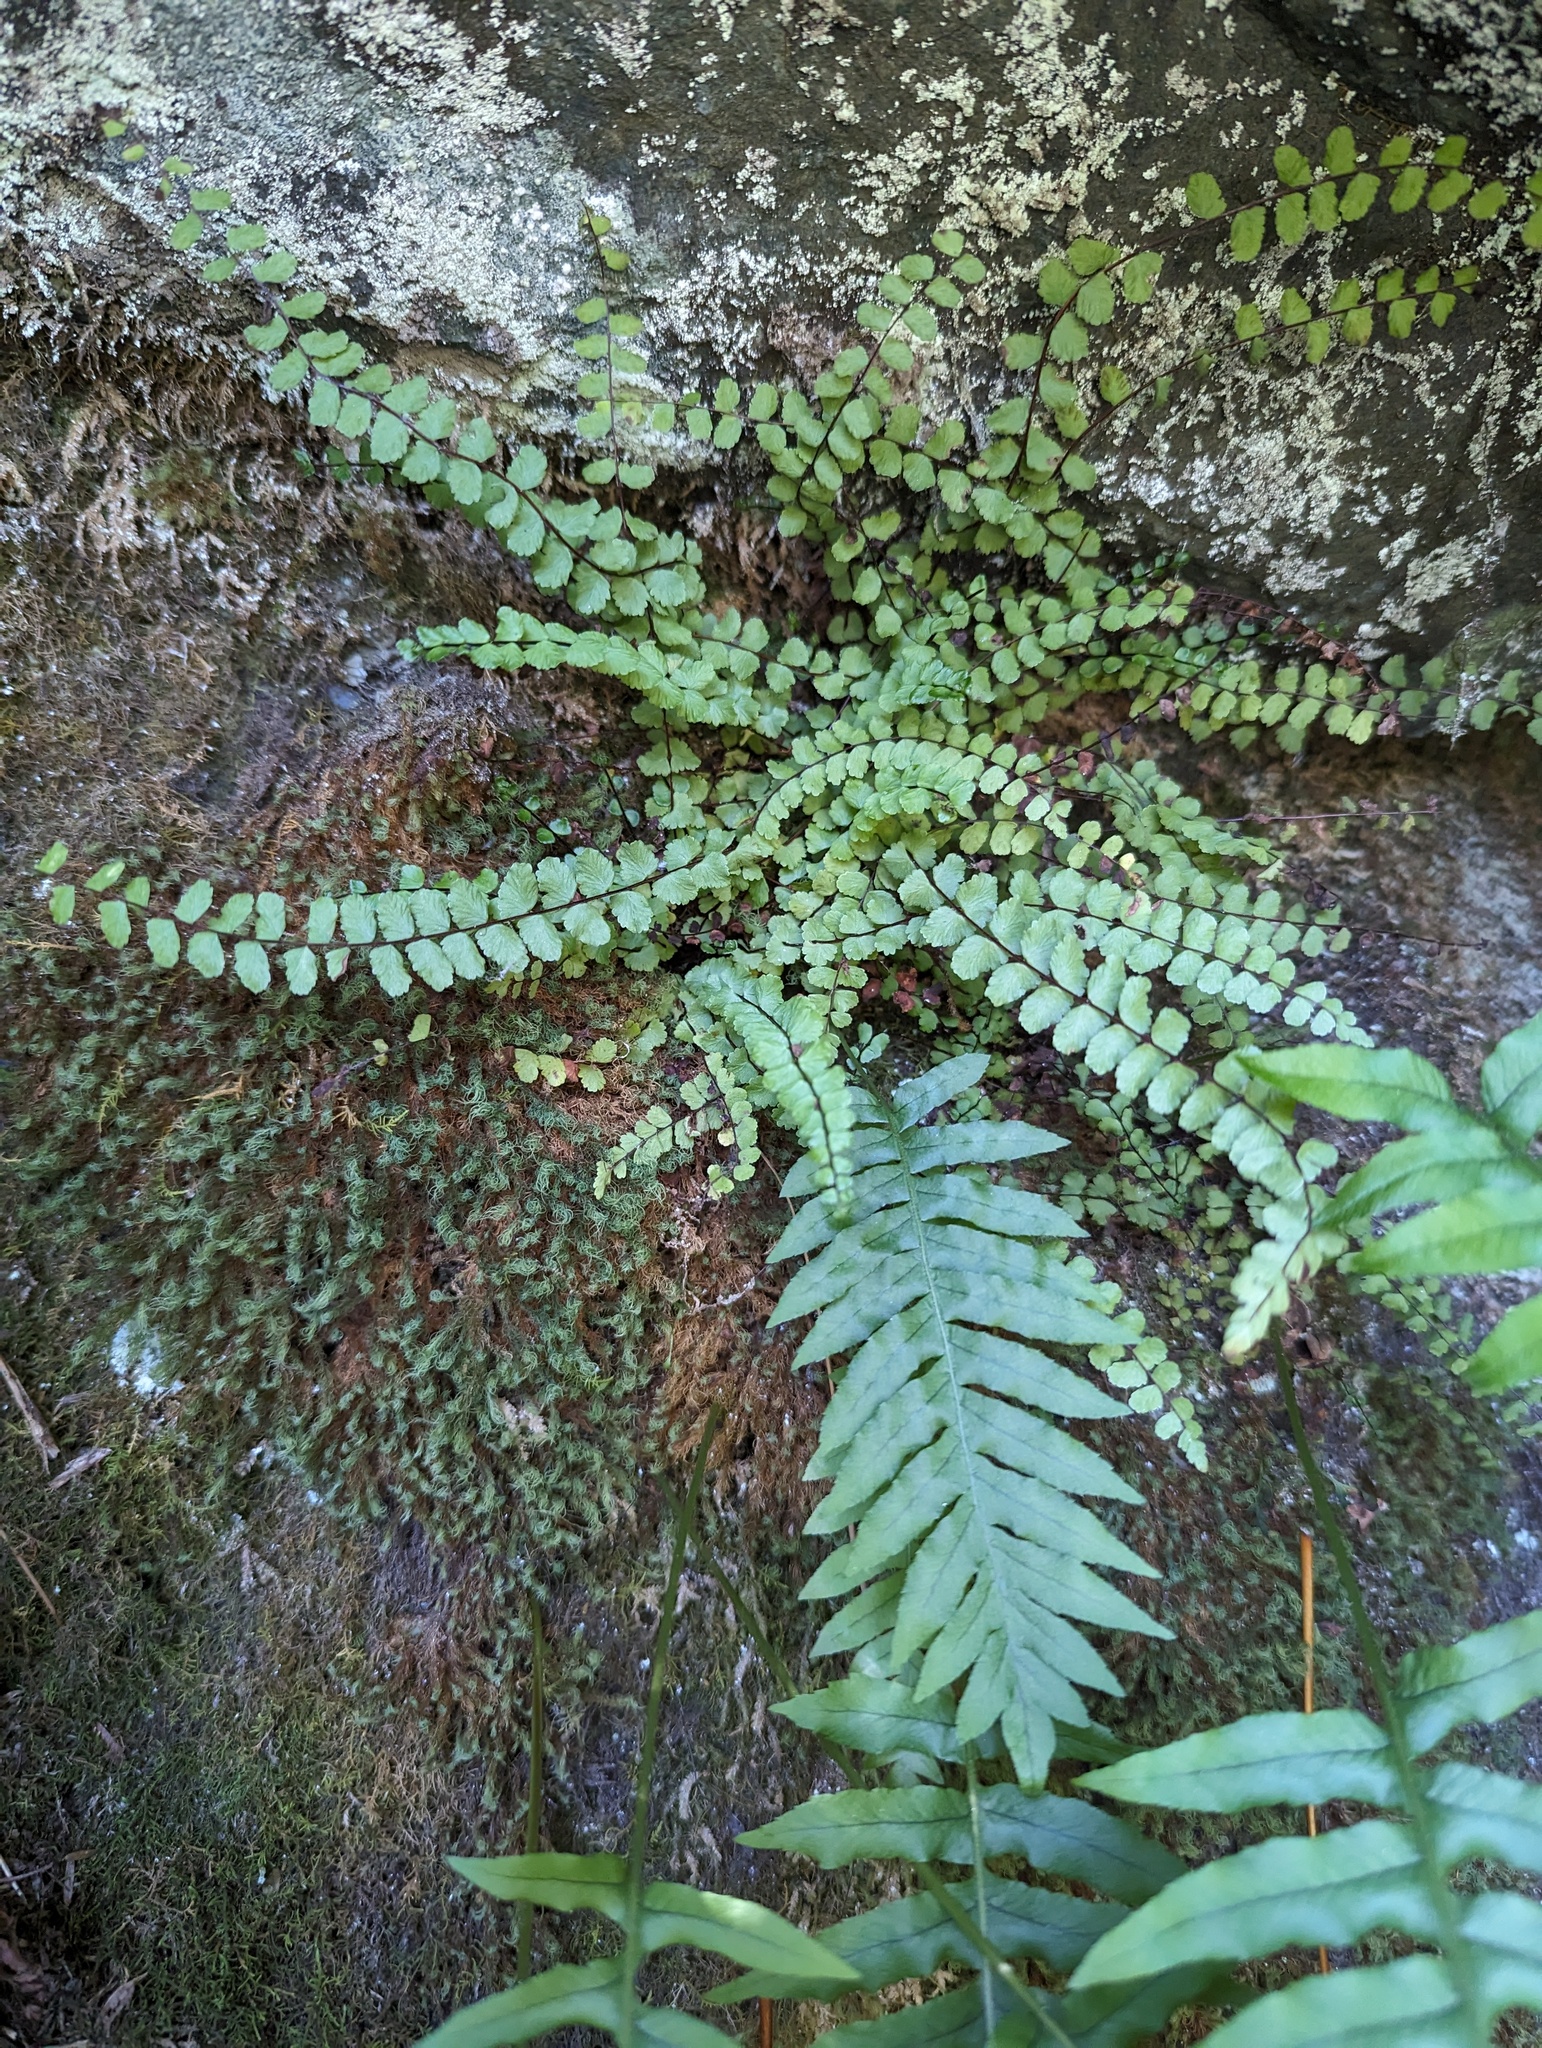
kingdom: Plantae
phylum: Tracheophyta
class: Polypodiopsida
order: Polypodiales
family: Aspleniaceae
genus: Asplenium
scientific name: Asplenium trichomanes
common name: Maidenhair spleenwort
